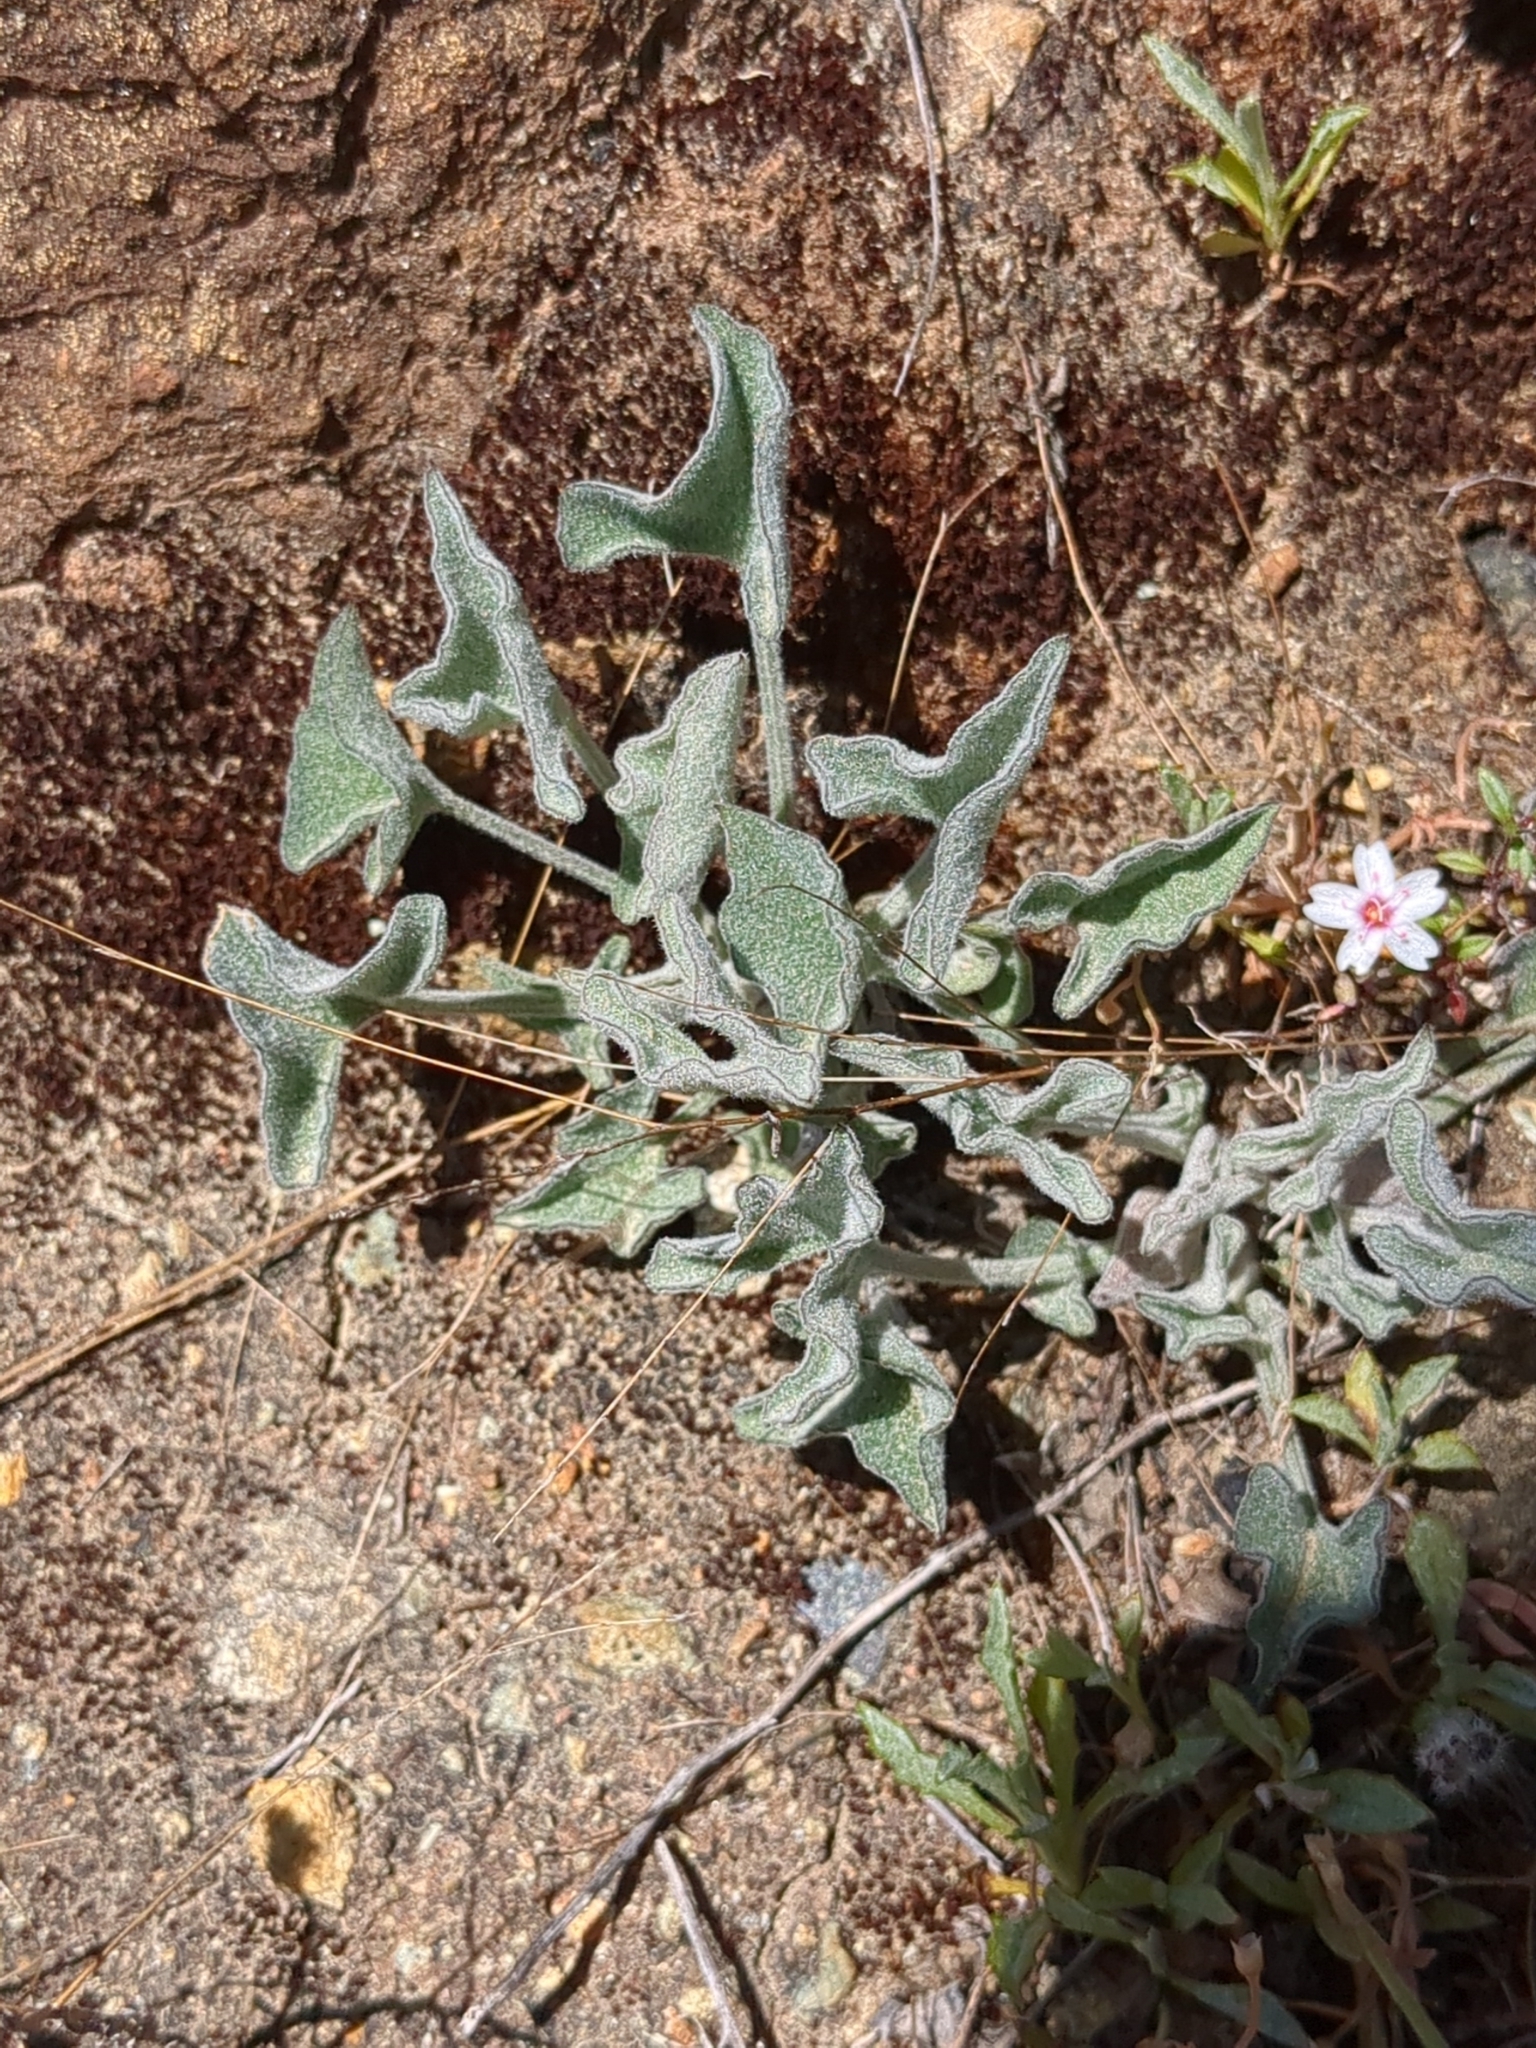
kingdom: Plantae
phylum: Tracheophyta
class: Magnoliopsida
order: Solanales
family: Convolvulaceae
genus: Calystegia
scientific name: Calystegia collina
